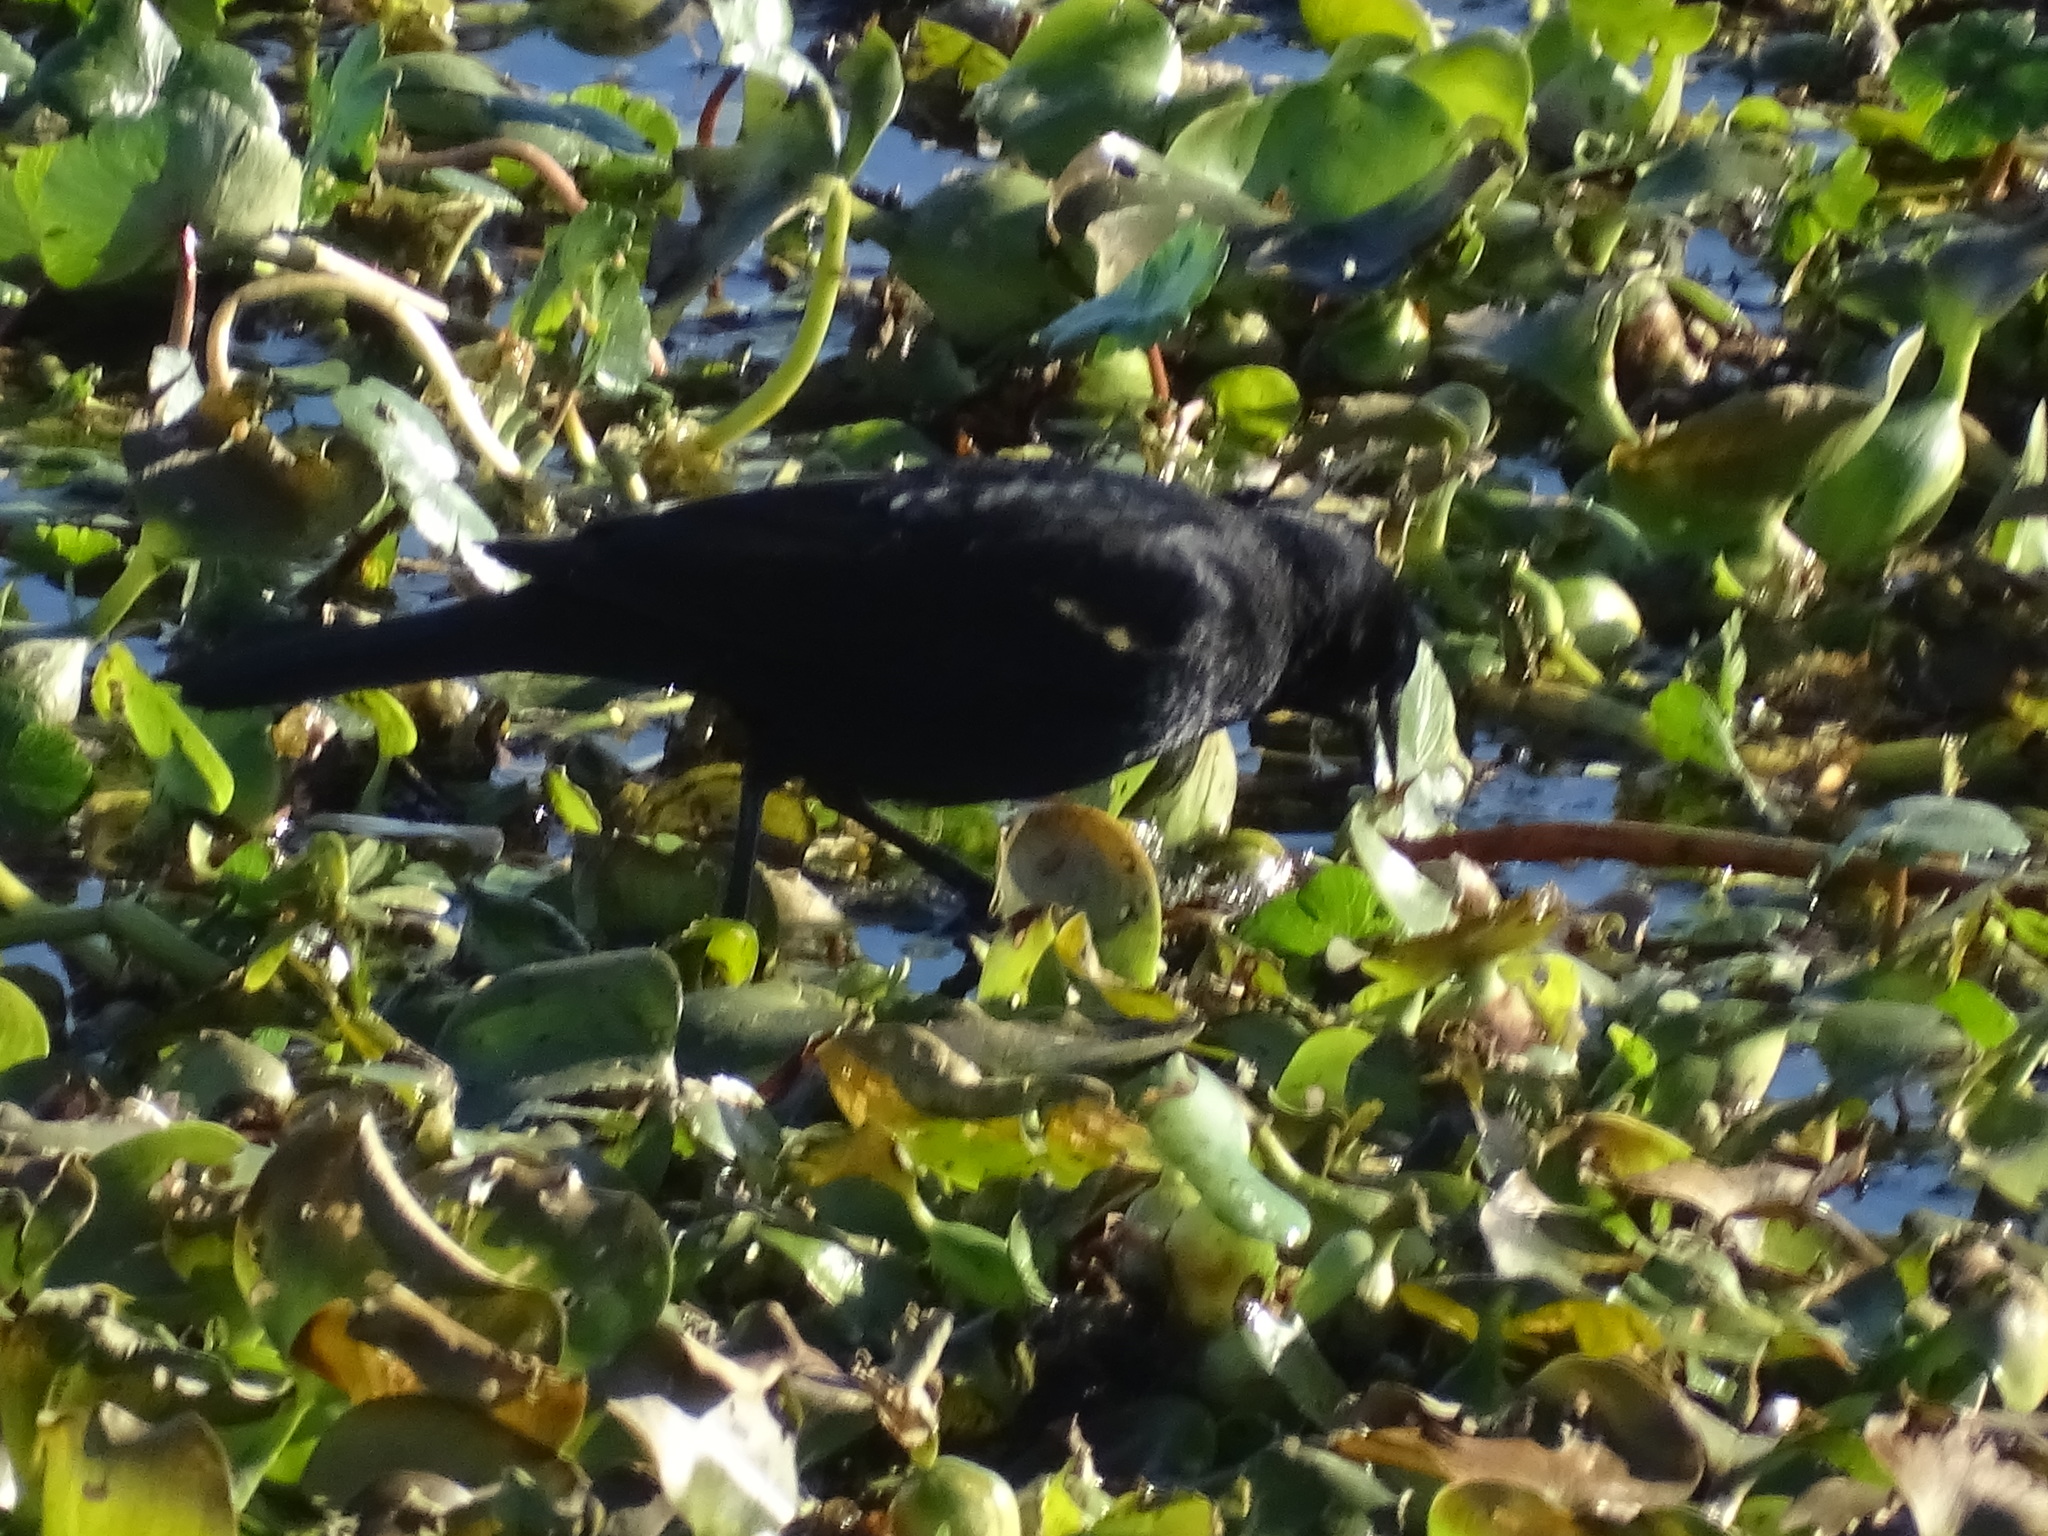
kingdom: Animalia
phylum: Chordata
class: Aves
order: Passeriformes
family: Icteridae
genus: Agelaius
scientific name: Agelaius phoeniceus
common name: Red-winged blackbird
